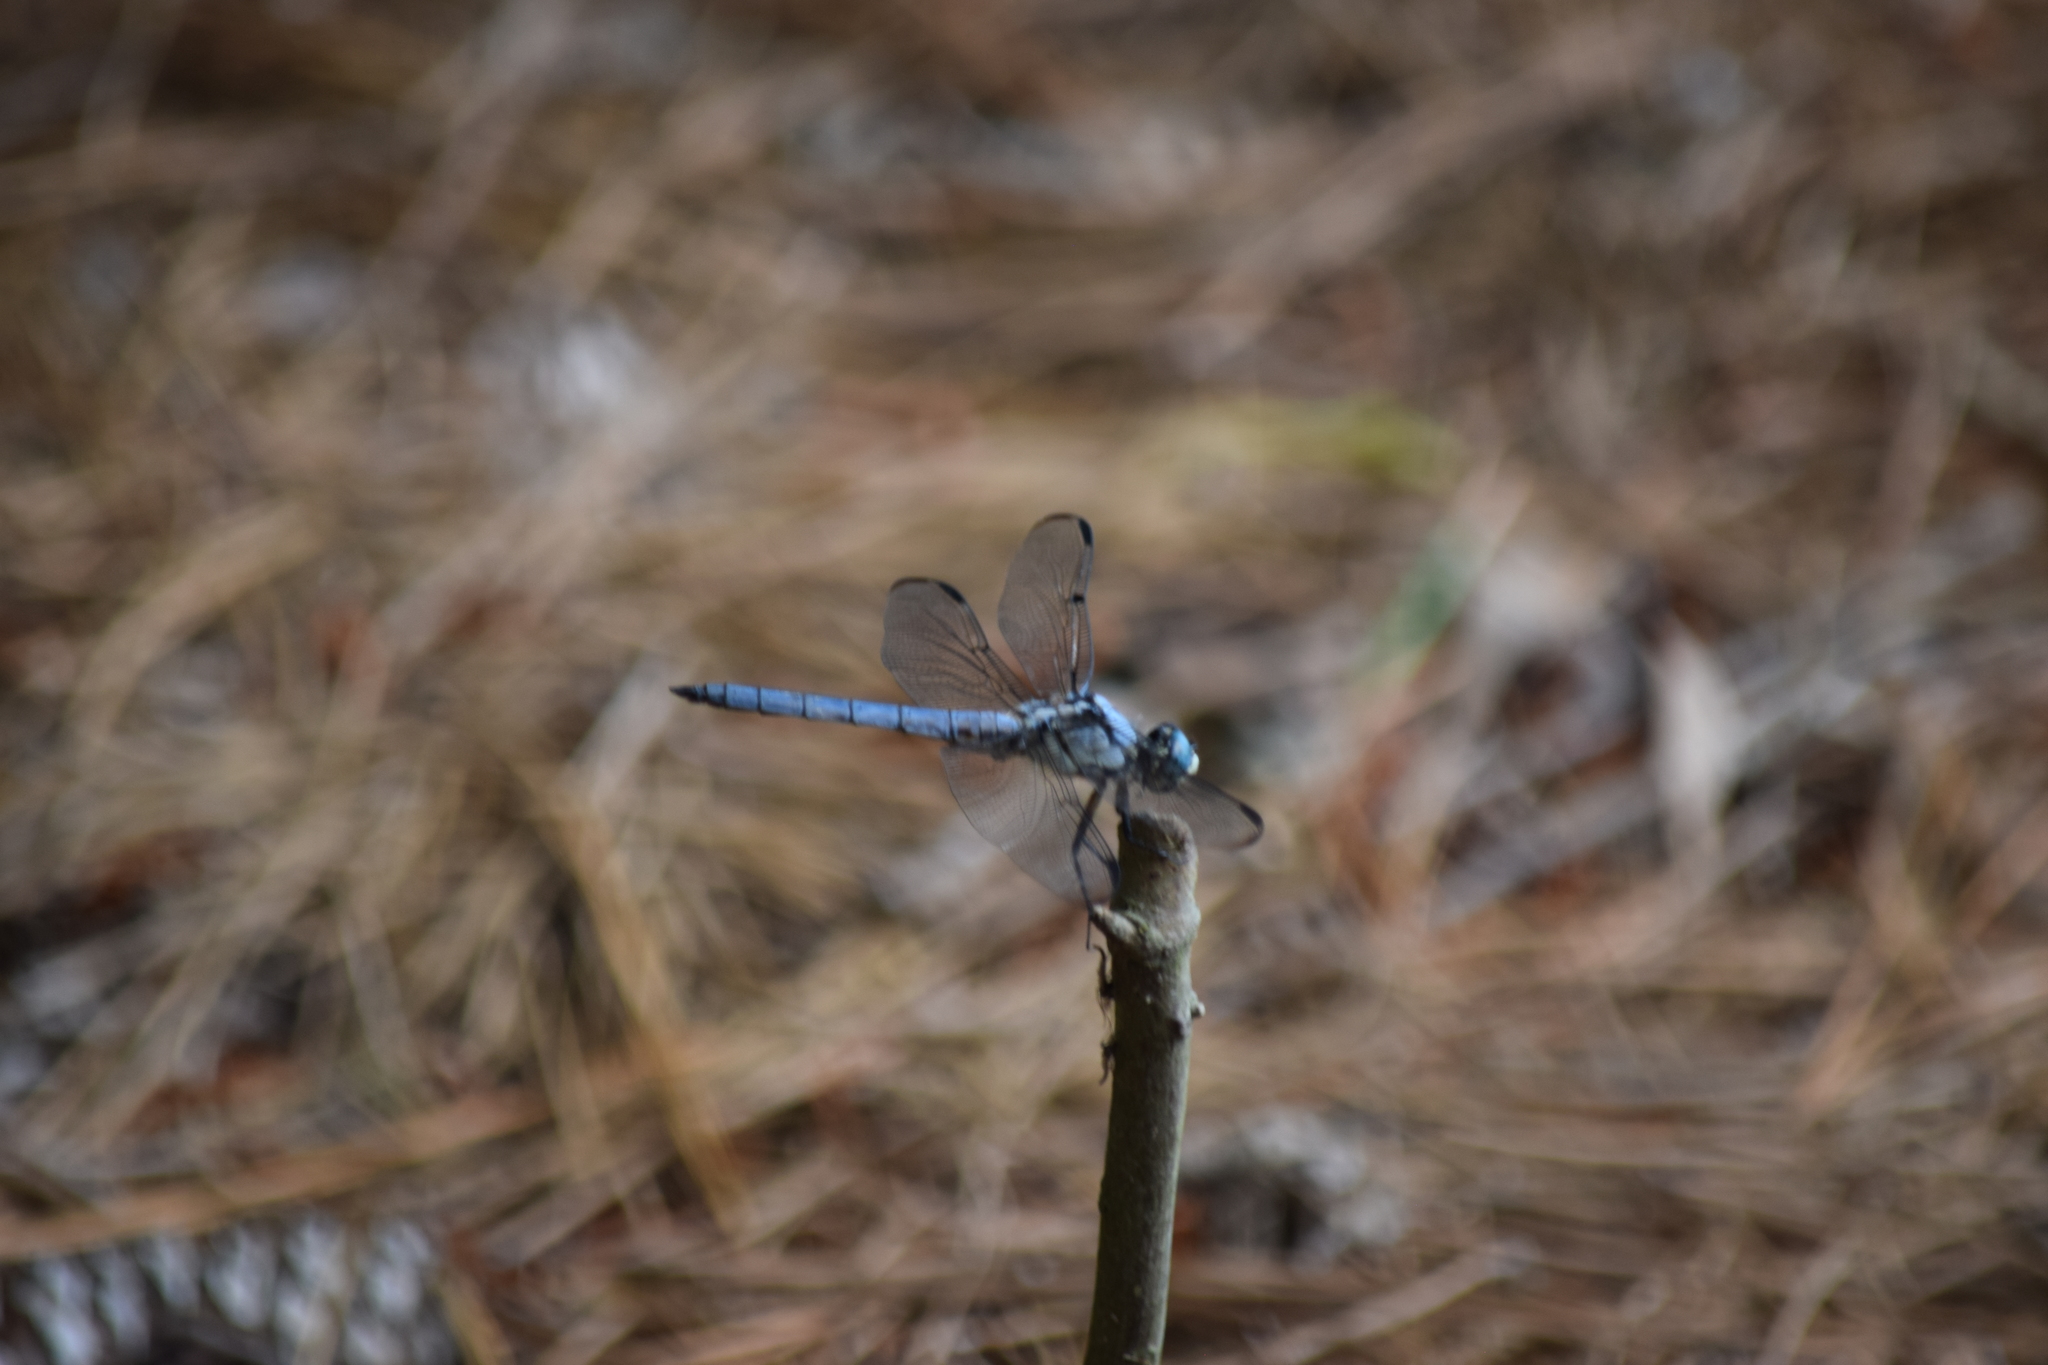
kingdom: Animalia
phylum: Arthropoda
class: Insecta
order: Odonata
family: Libellulidae
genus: Libellula
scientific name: Libellula vibrans
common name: Great blue skimmer
